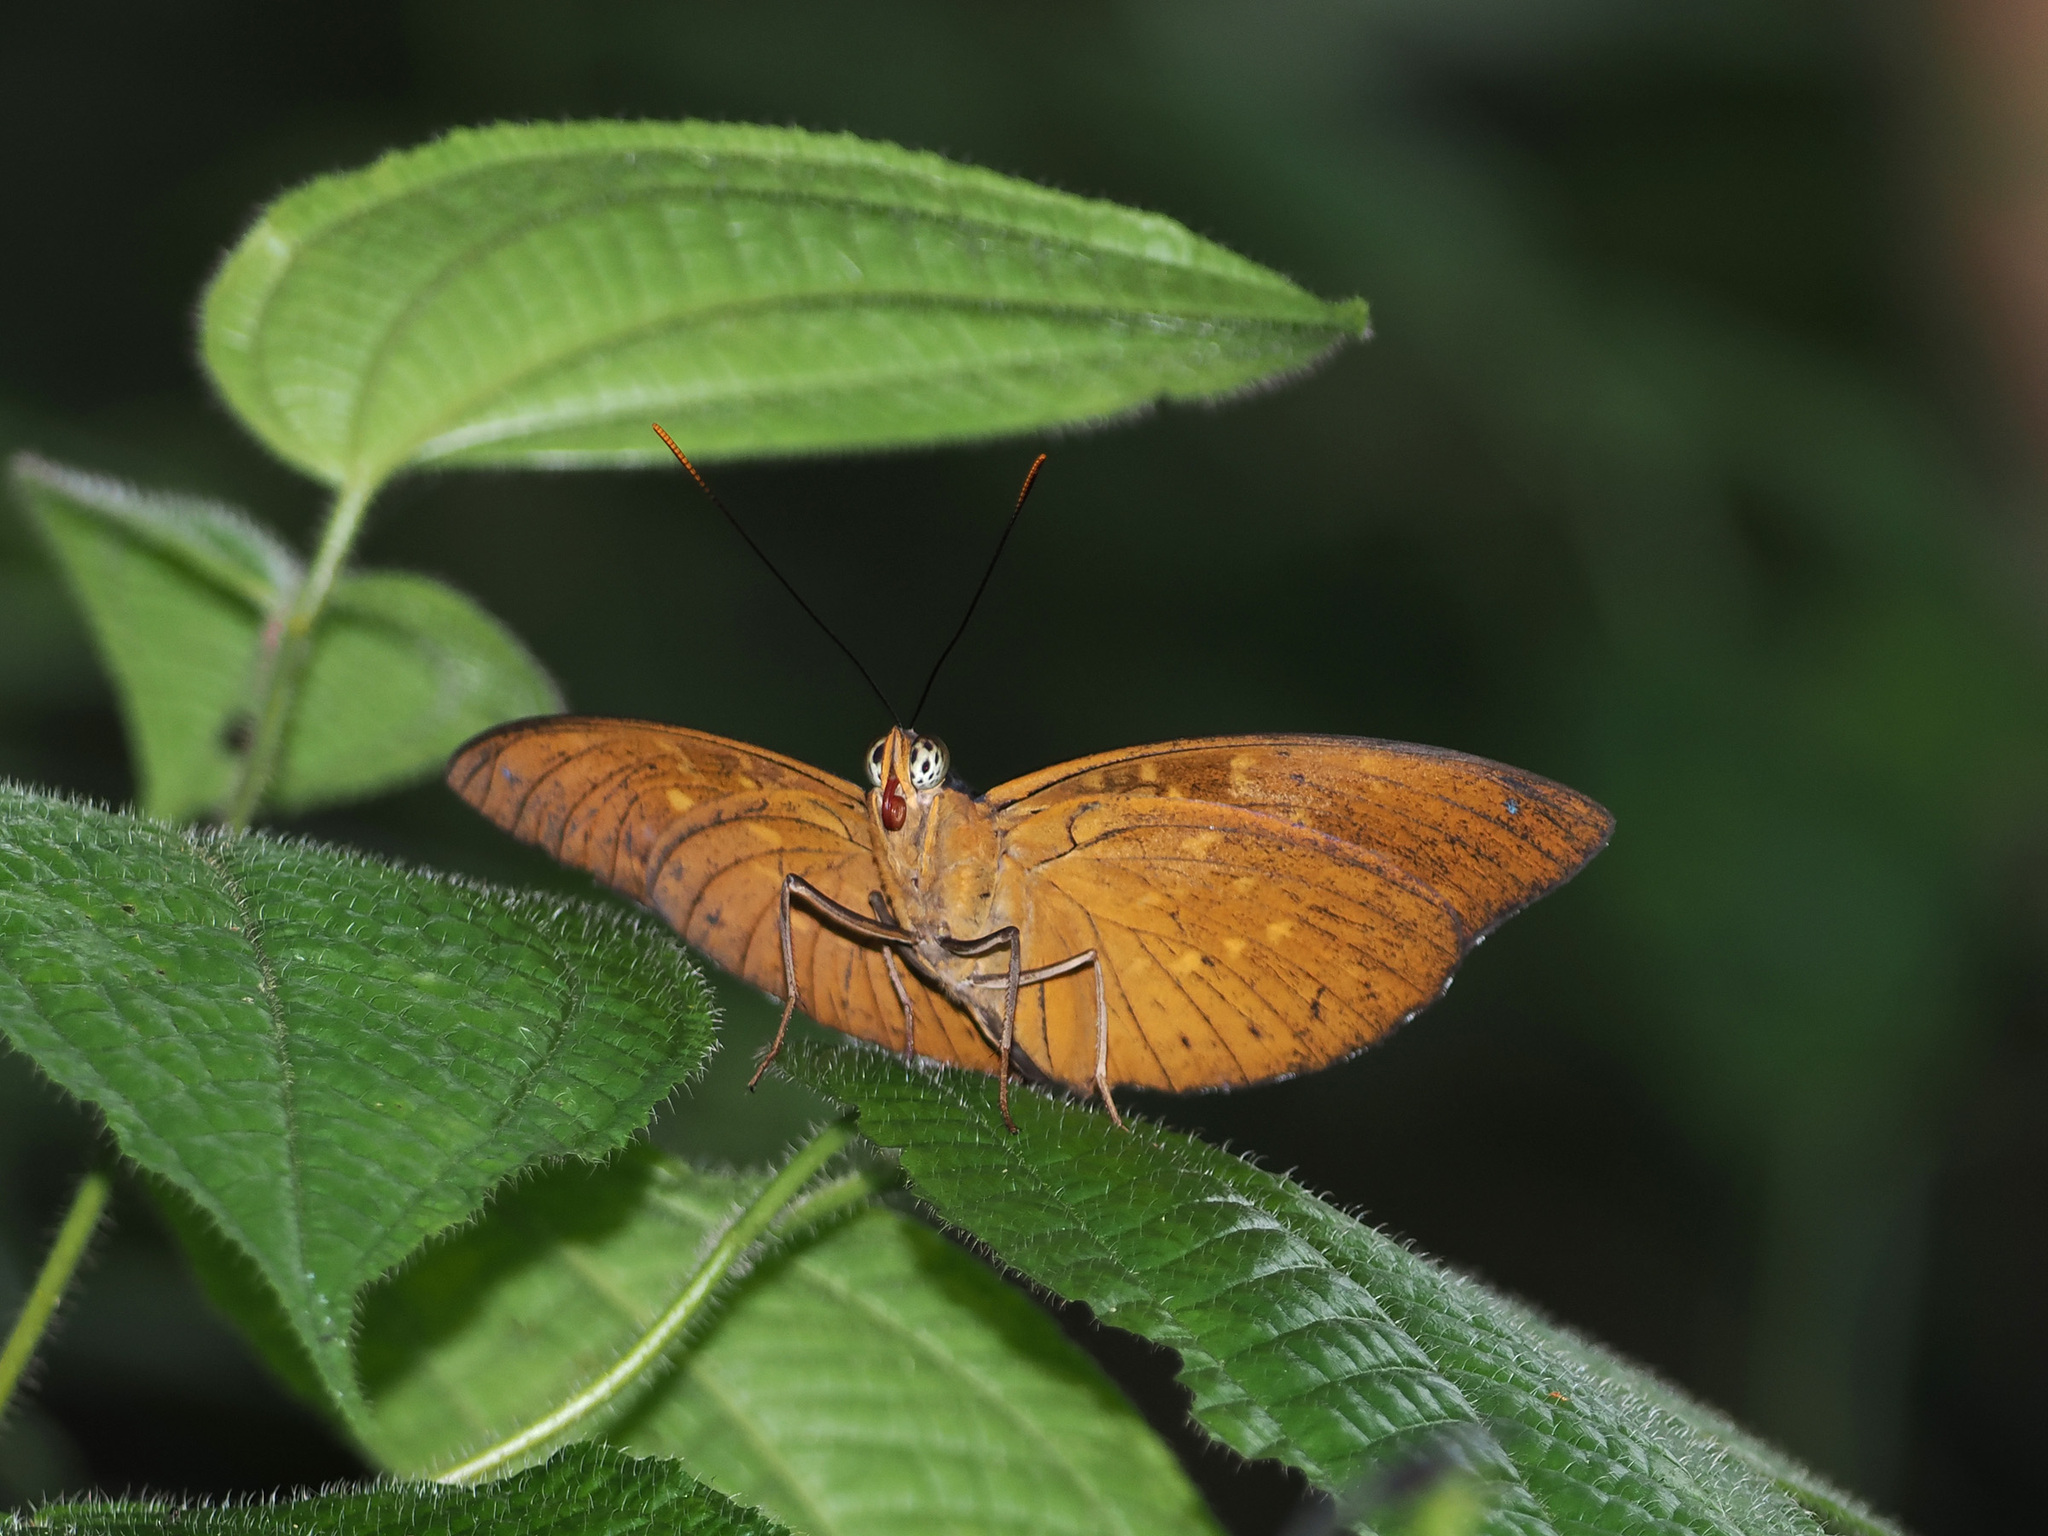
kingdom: Animalia
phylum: Arthropoda
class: Insecta
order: Lepidoptera
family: Nymphalidae
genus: Lexias
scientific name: Lexias dirtea
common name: Black-tipped archduke
